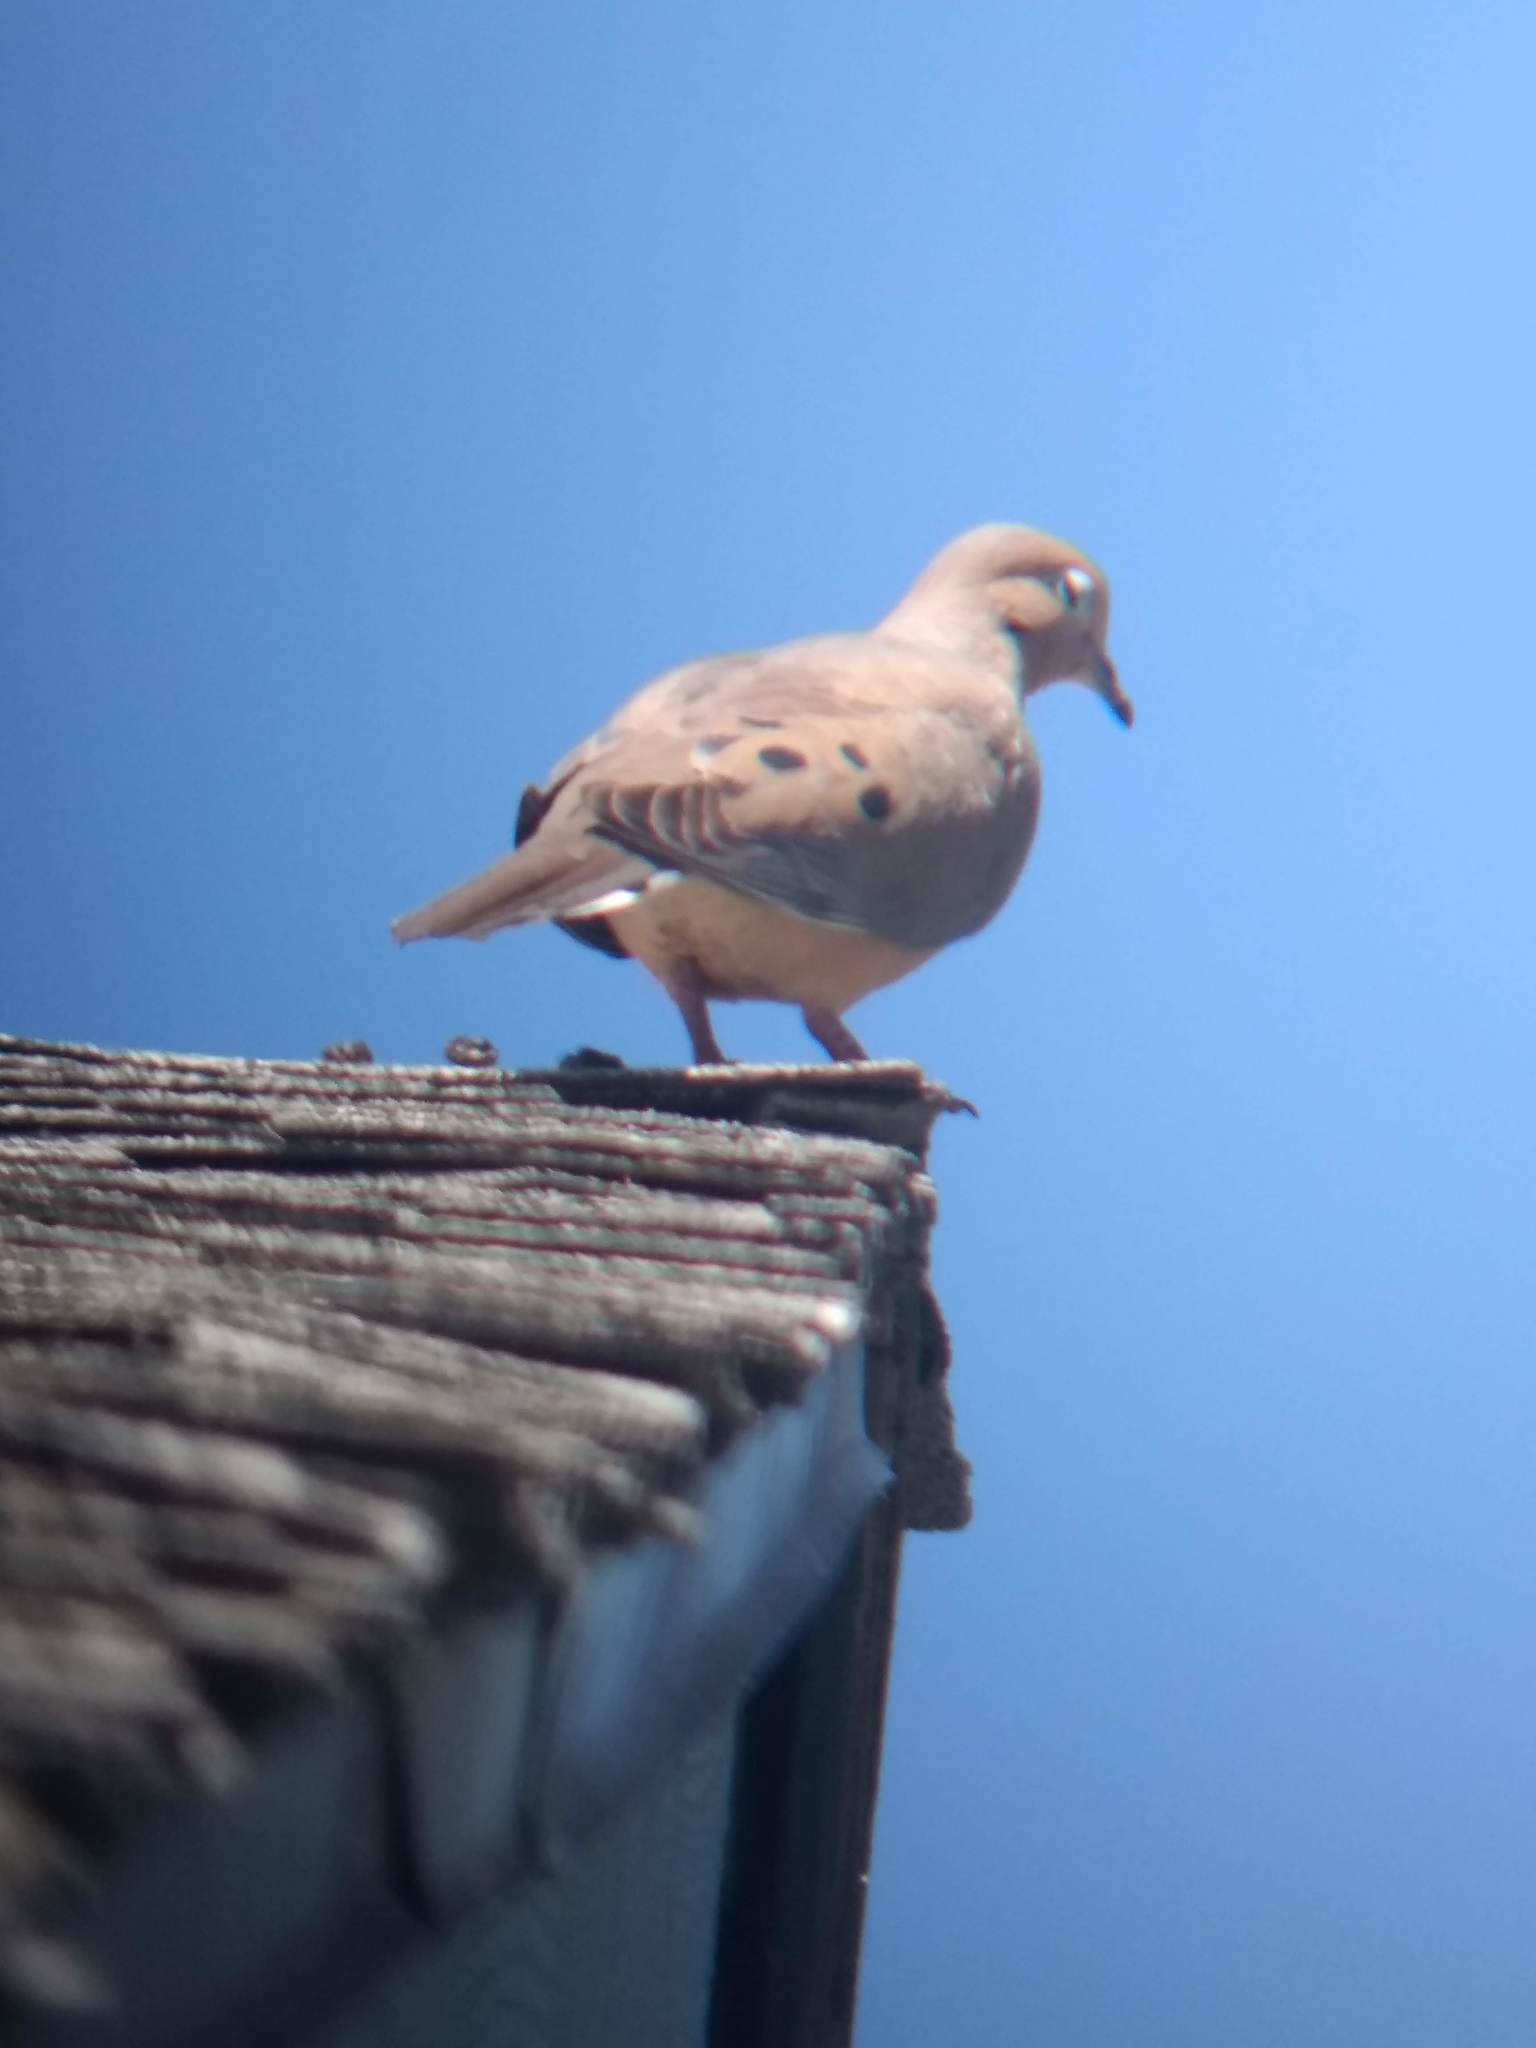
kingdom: Animalia
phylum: Chordata
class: Aves
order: Columbiformes
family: Columbidae
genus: Zenaida
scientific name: Zenaida macroura
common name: Mourning dove
